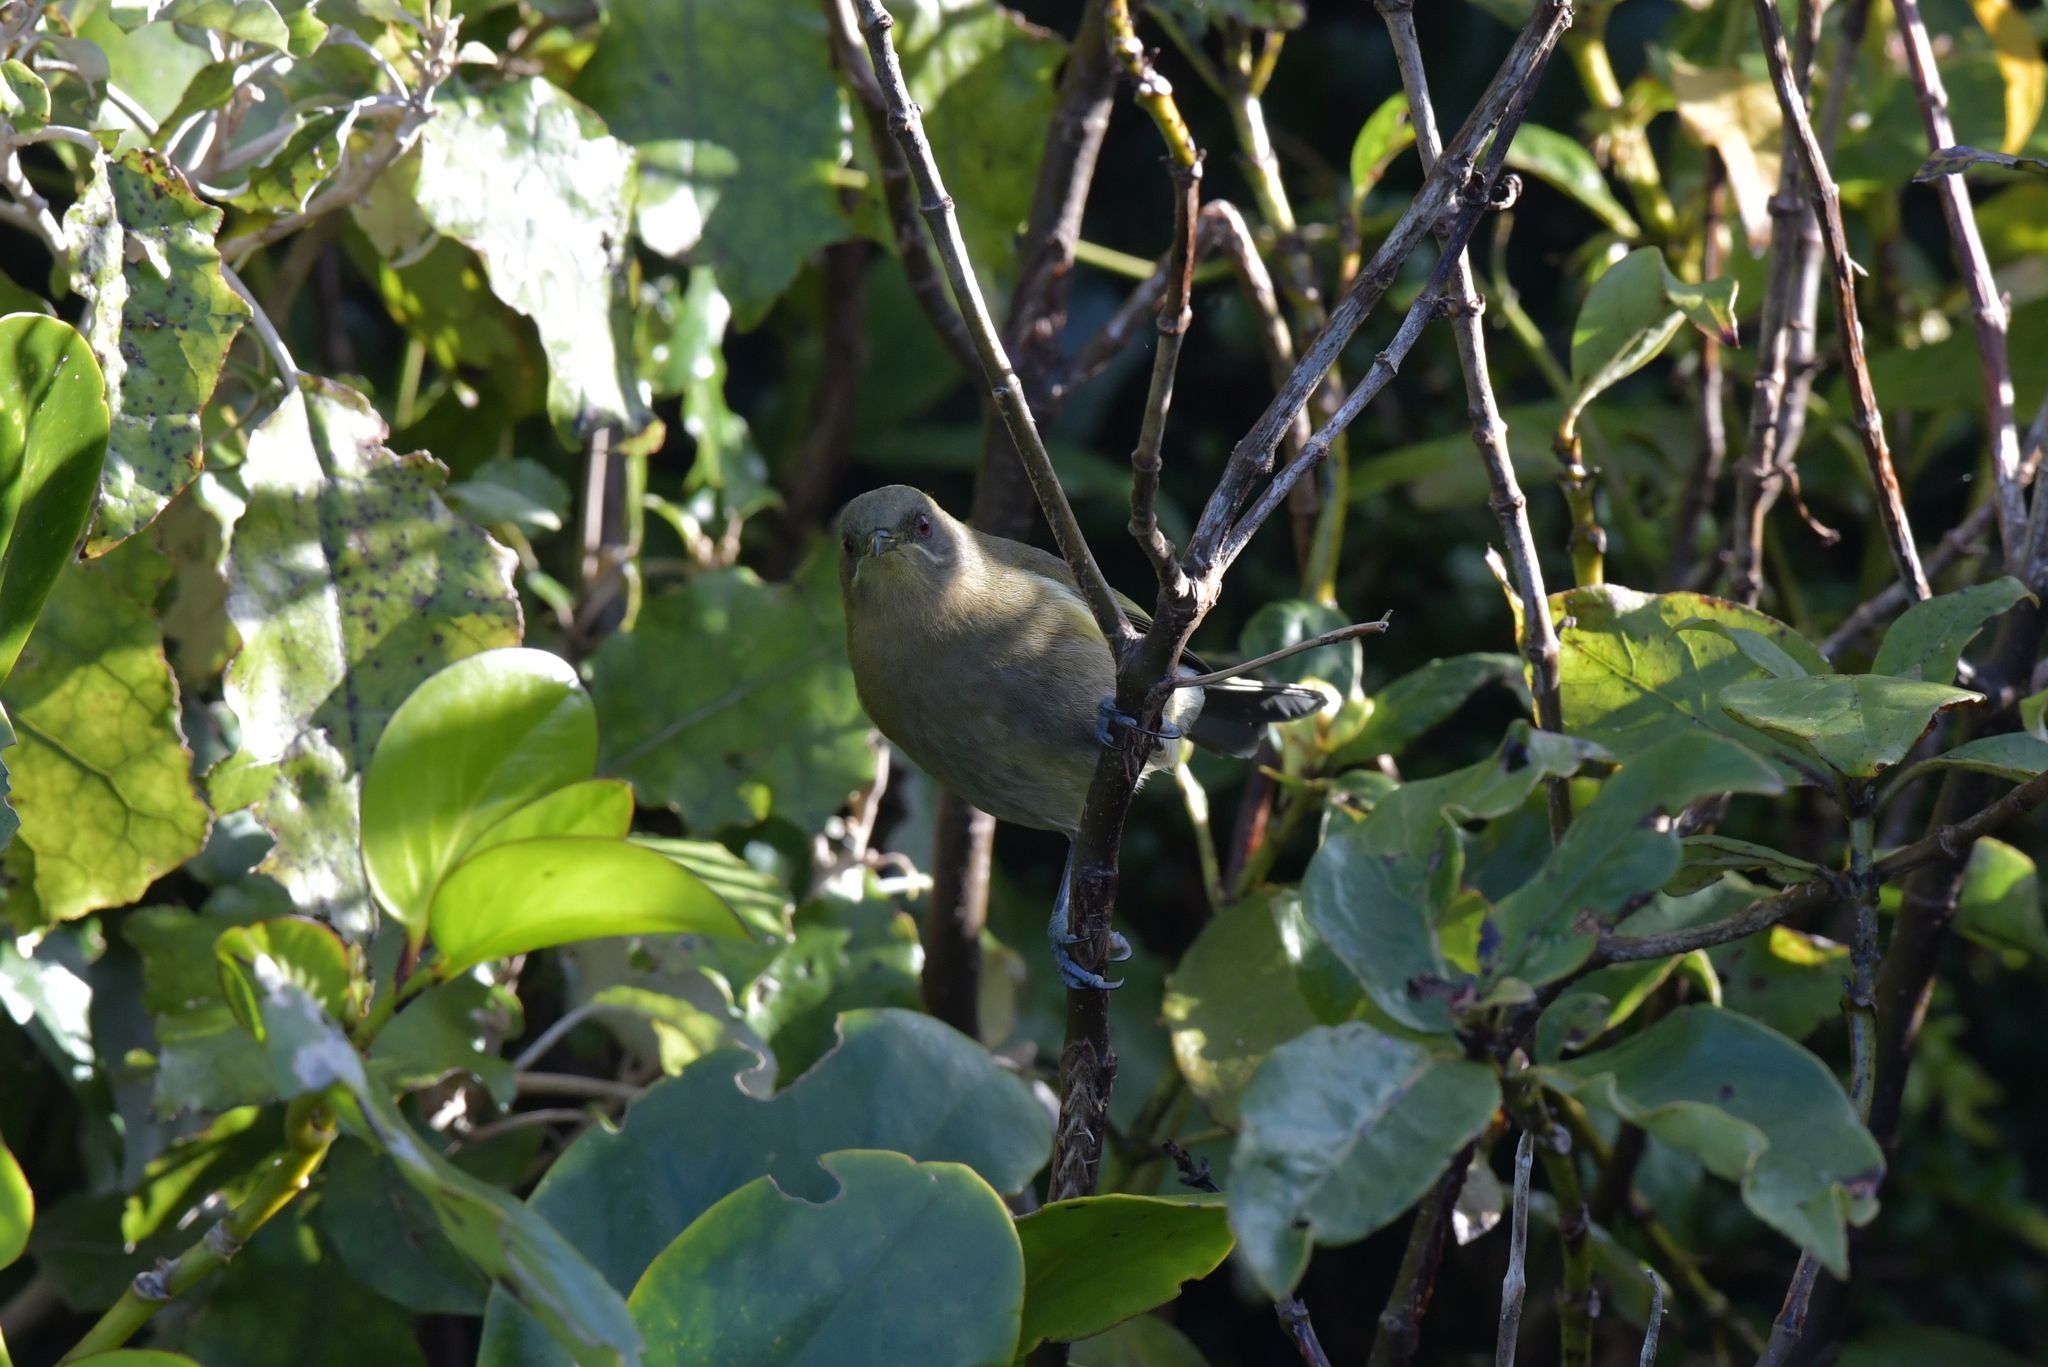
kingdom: Animalia
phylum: Chordata
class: Aves
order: Passeriformes
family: Meliphagidae
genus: Anthornis
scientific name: Anthornis melanura
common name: New zealand bellbird
